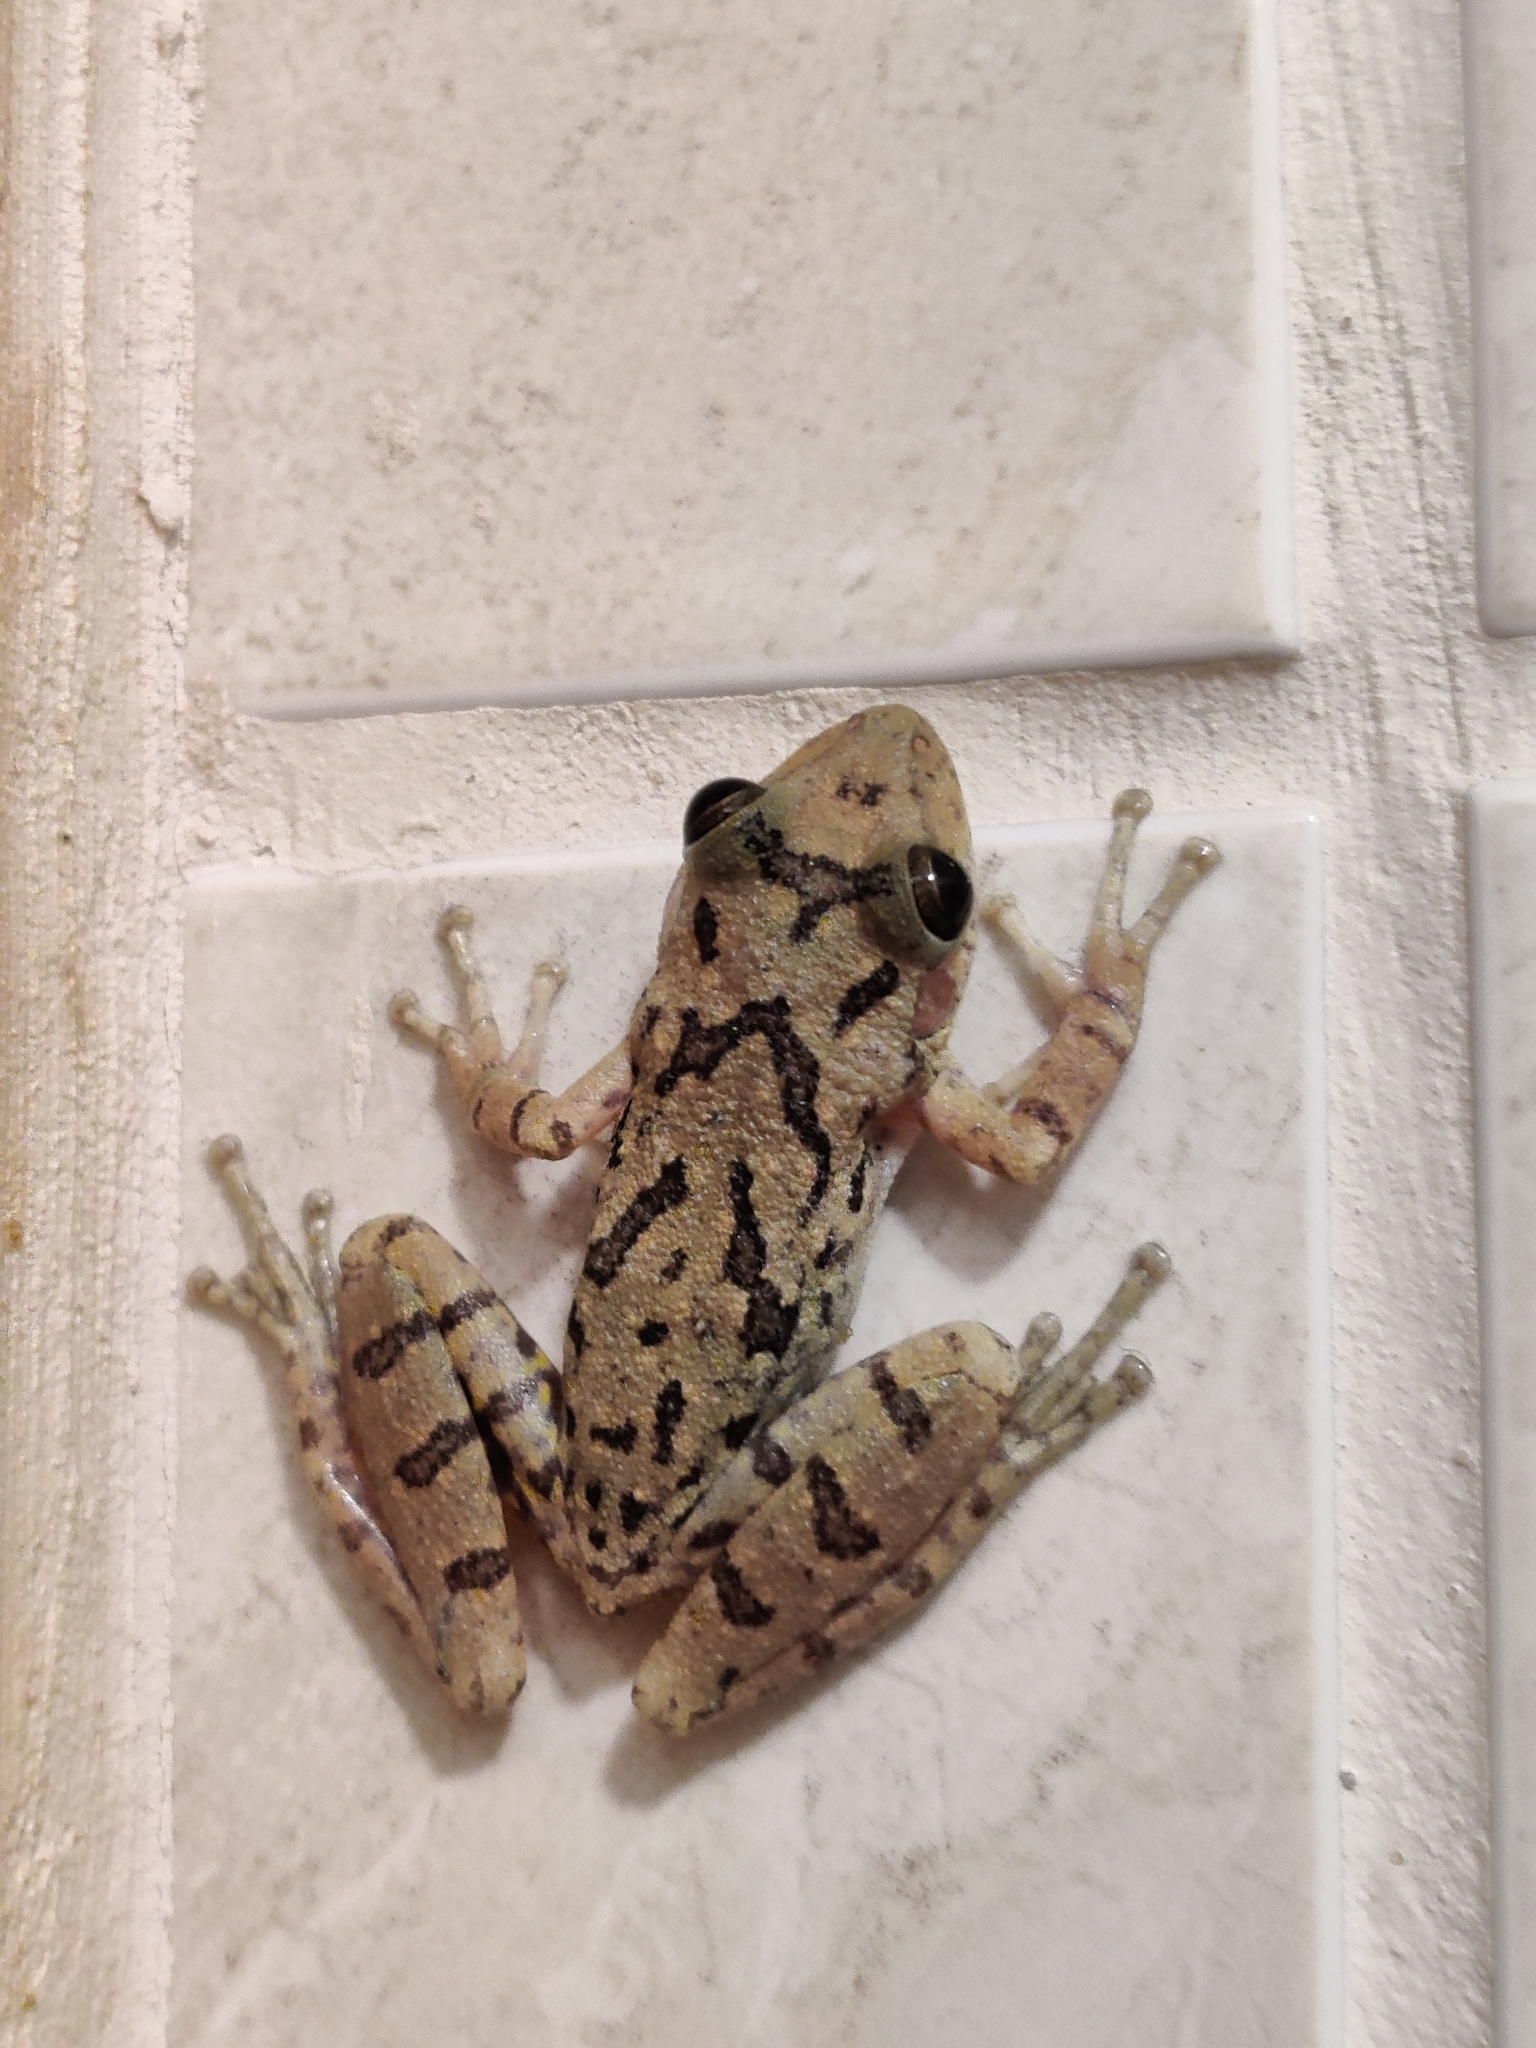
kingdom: Animalia
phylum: Chordata
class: Amphibia
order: Anura
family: Hylidae
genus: Scinax
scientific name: Scinax fuscovarius
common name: Fuscous-blotched treefrog
